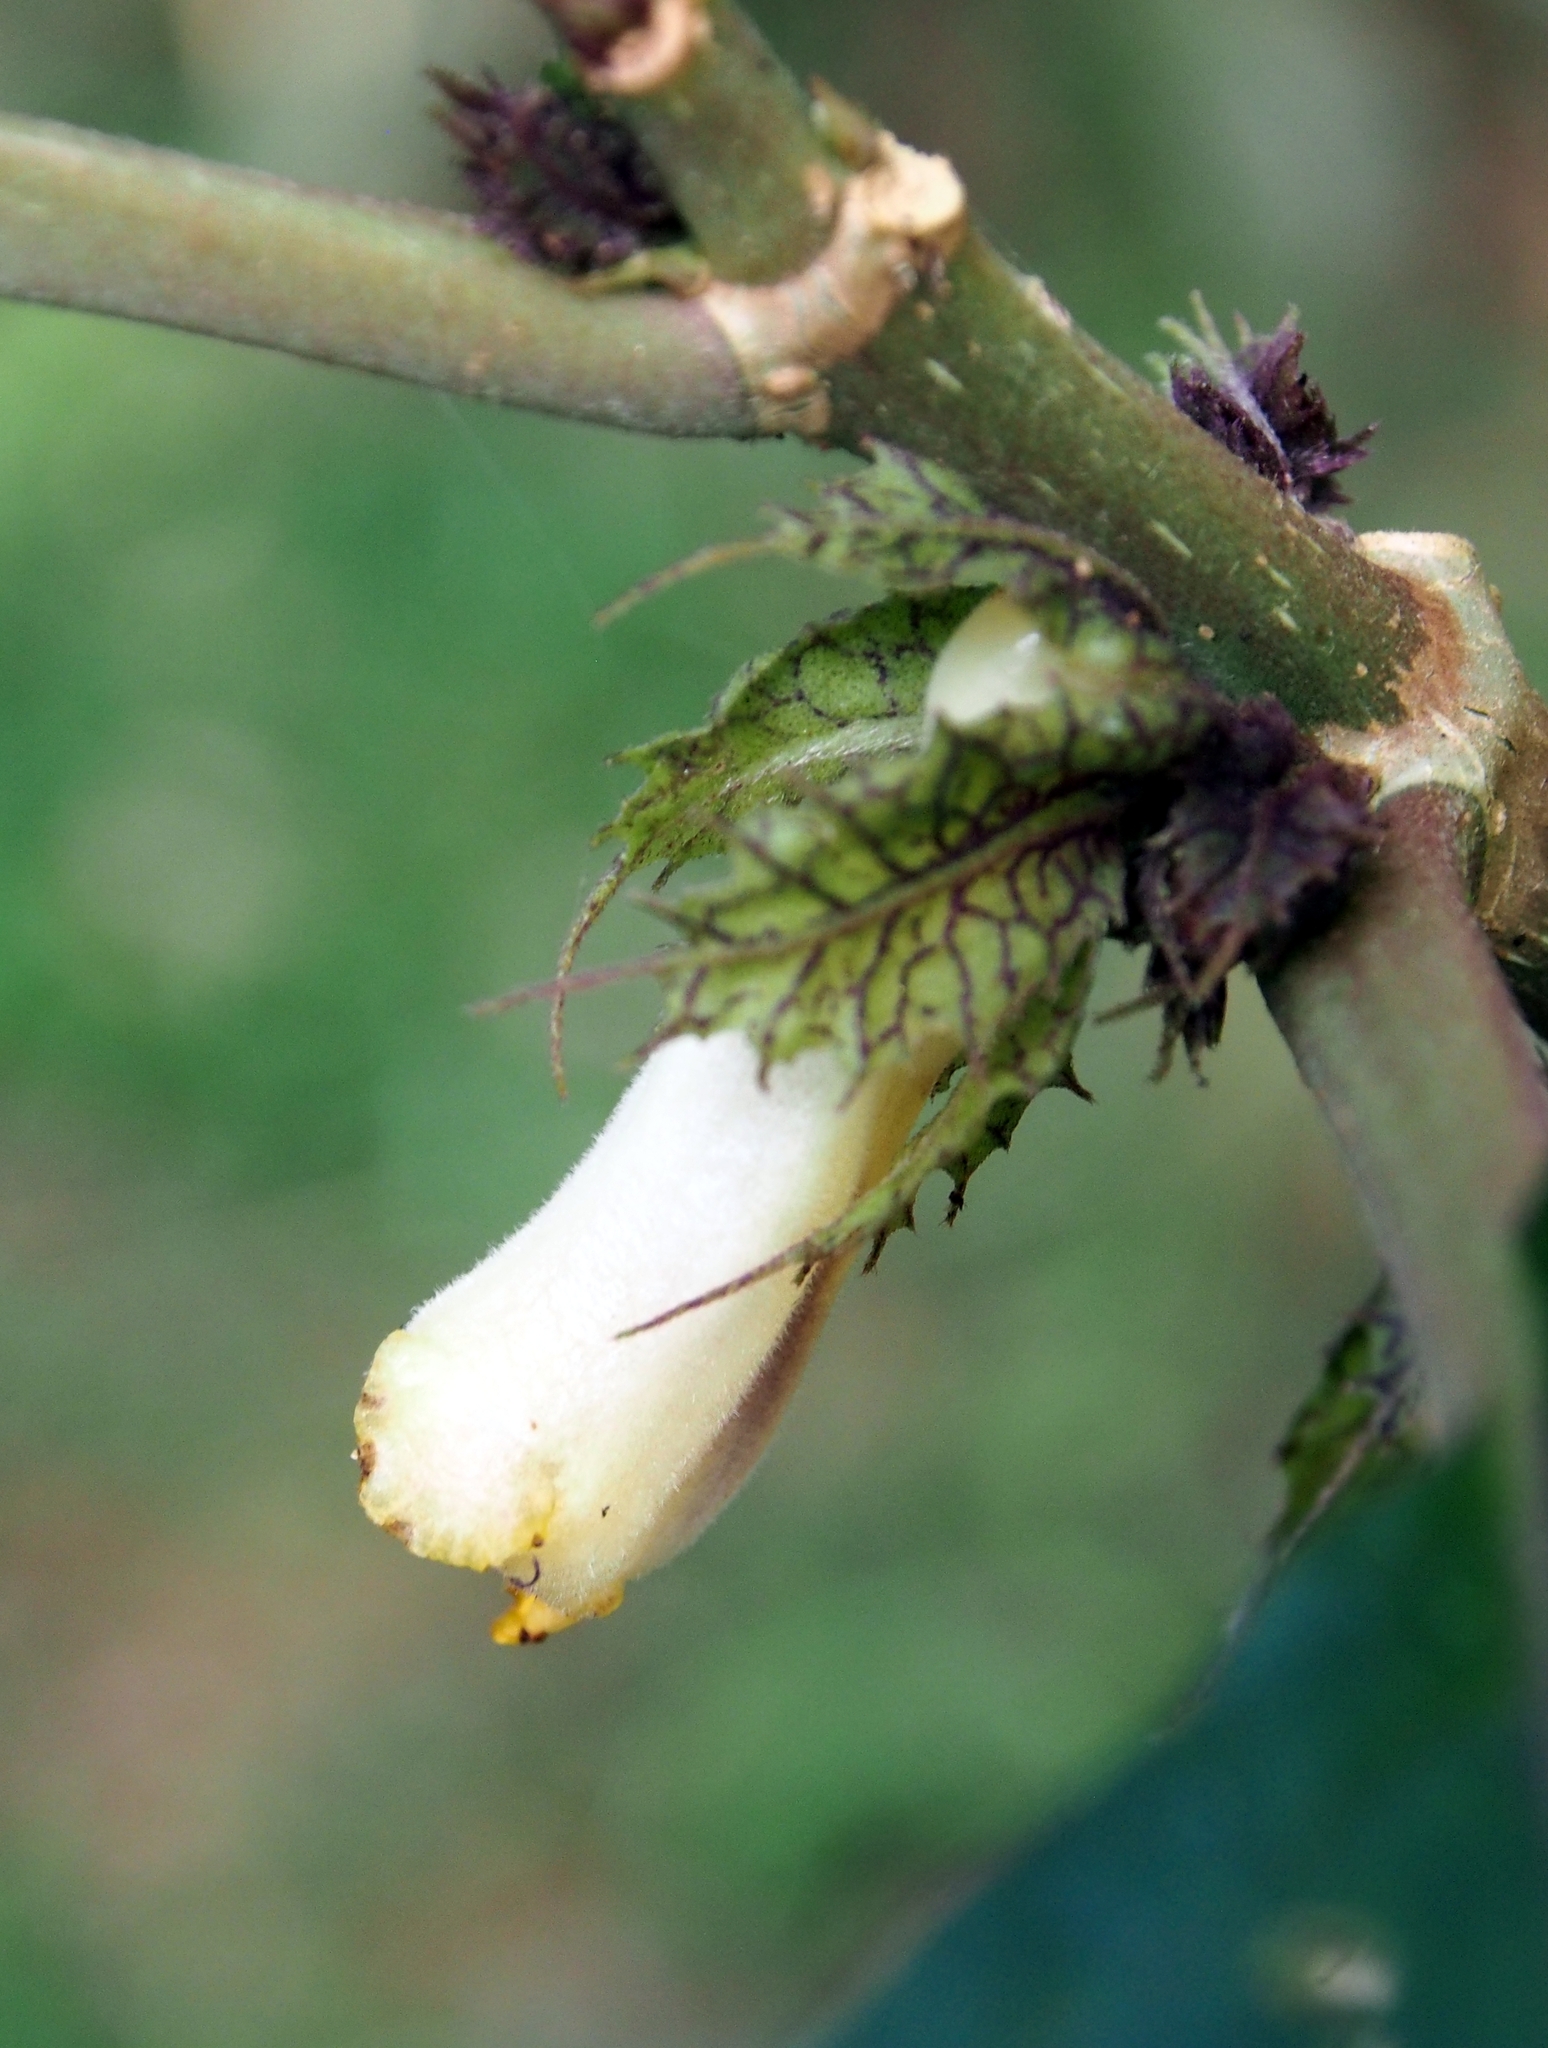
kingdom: Plantae
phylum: Tracheophyta
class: Magnoliopsida
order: Lamiales
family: Gesneriaceae
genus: Drymonia
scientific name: Drymonia macrophylla
